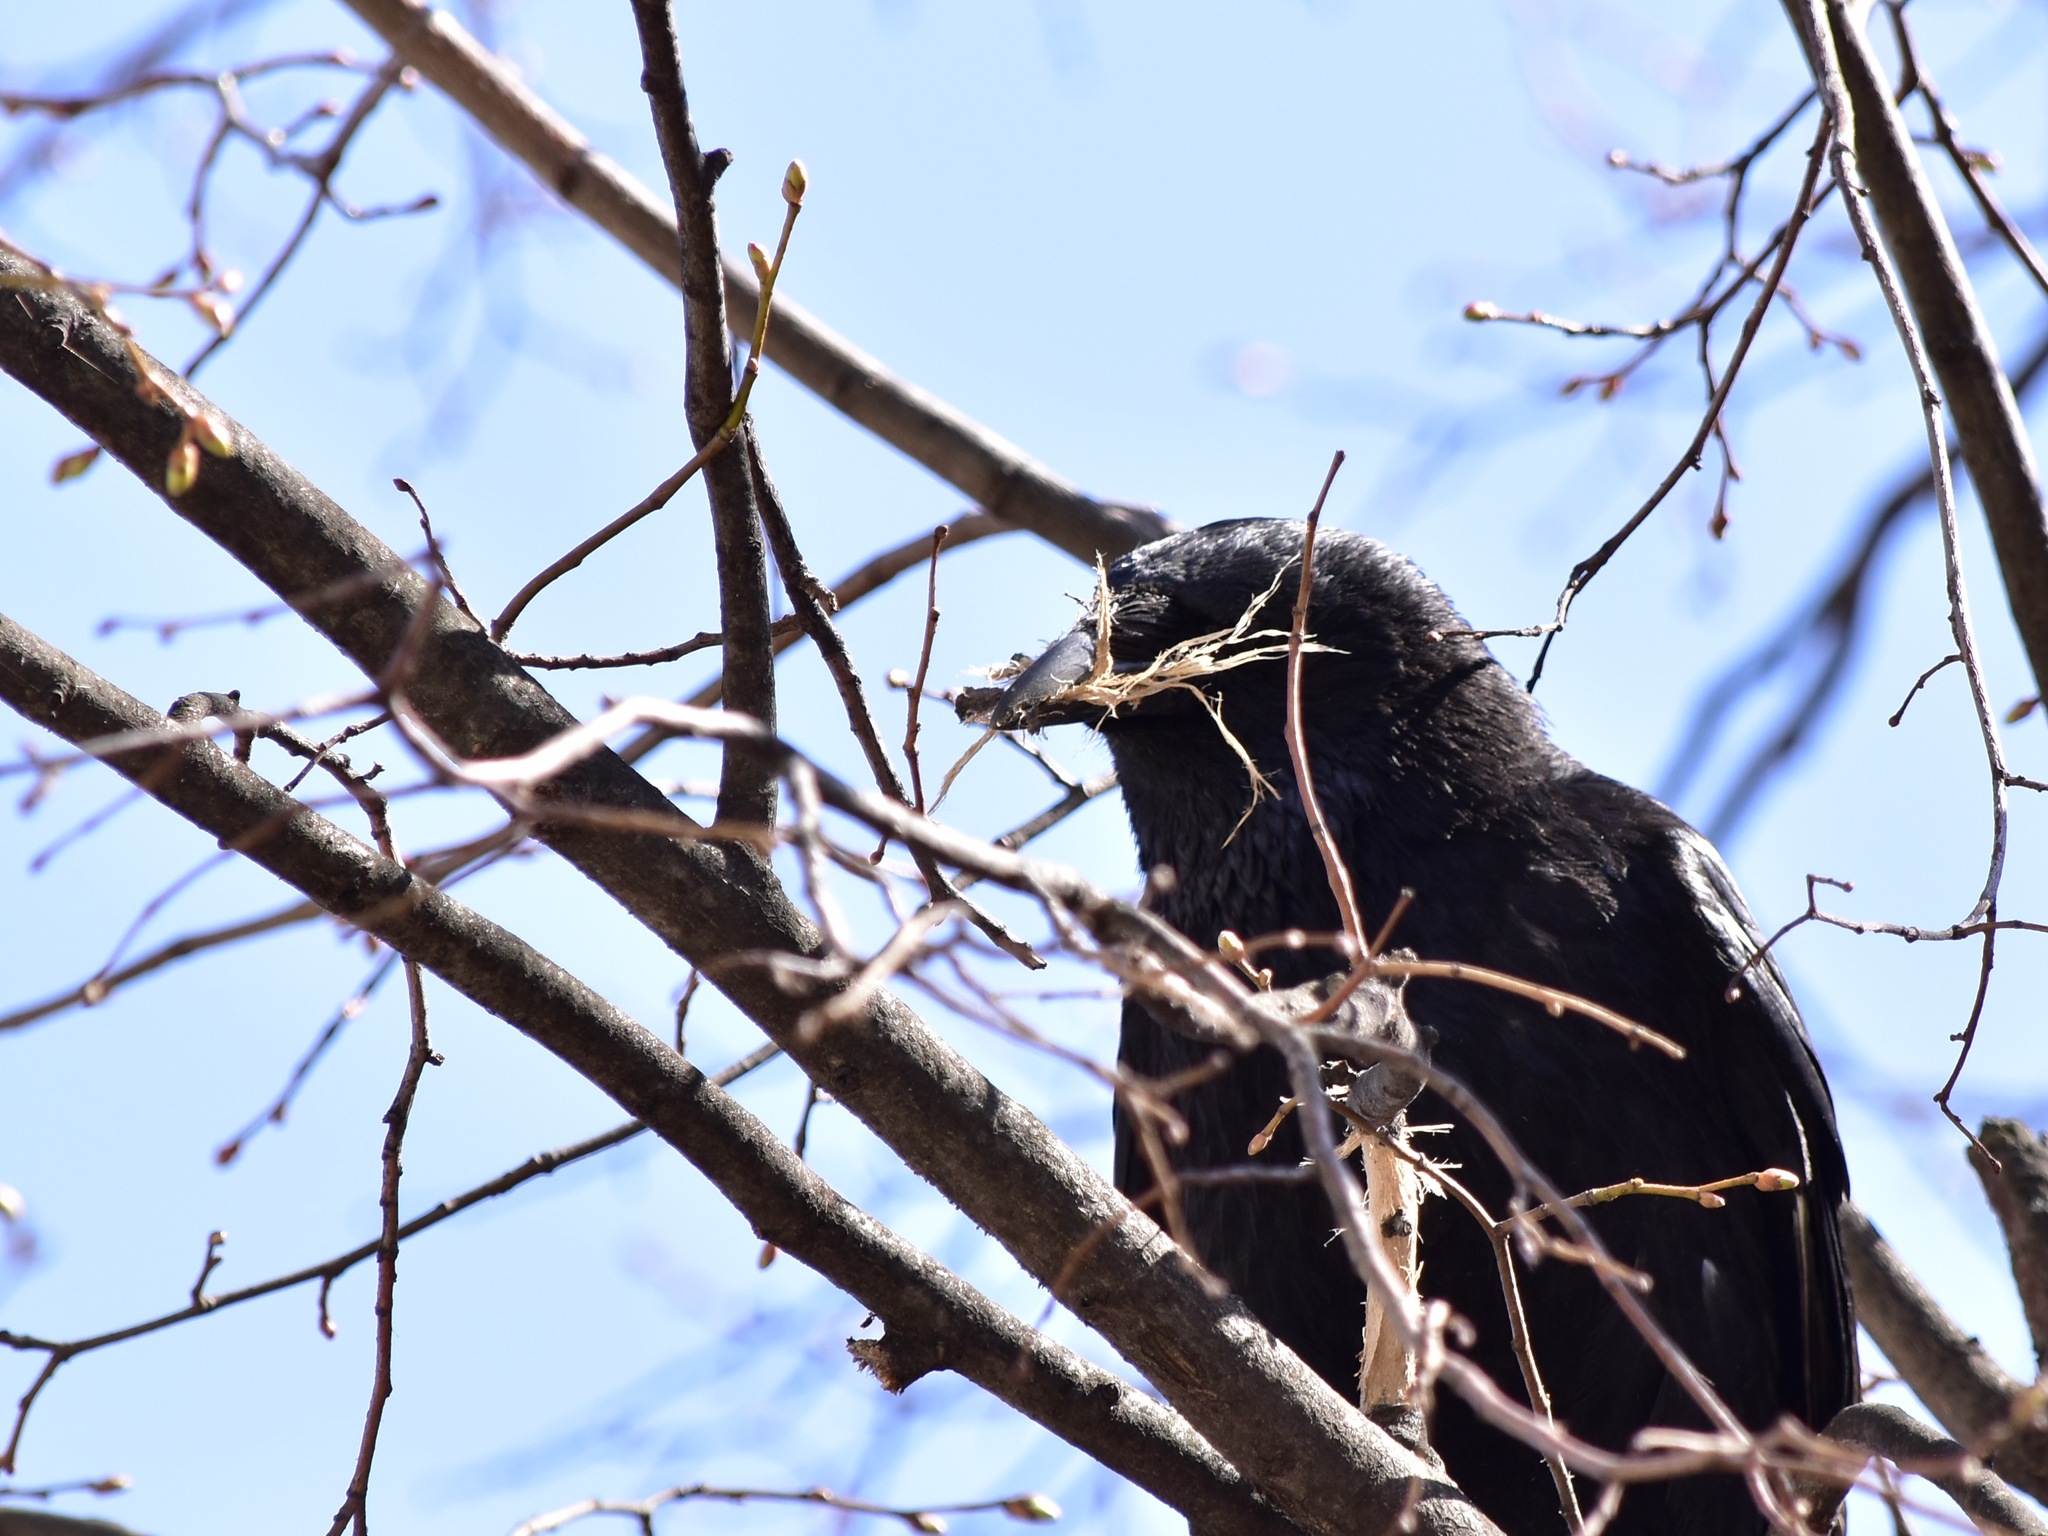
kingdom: Animalia
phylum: Chordata
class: Aves
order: Passeriformes
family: Corvidae
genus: Corvus
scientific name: Corvus corone
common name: Carrion crow
